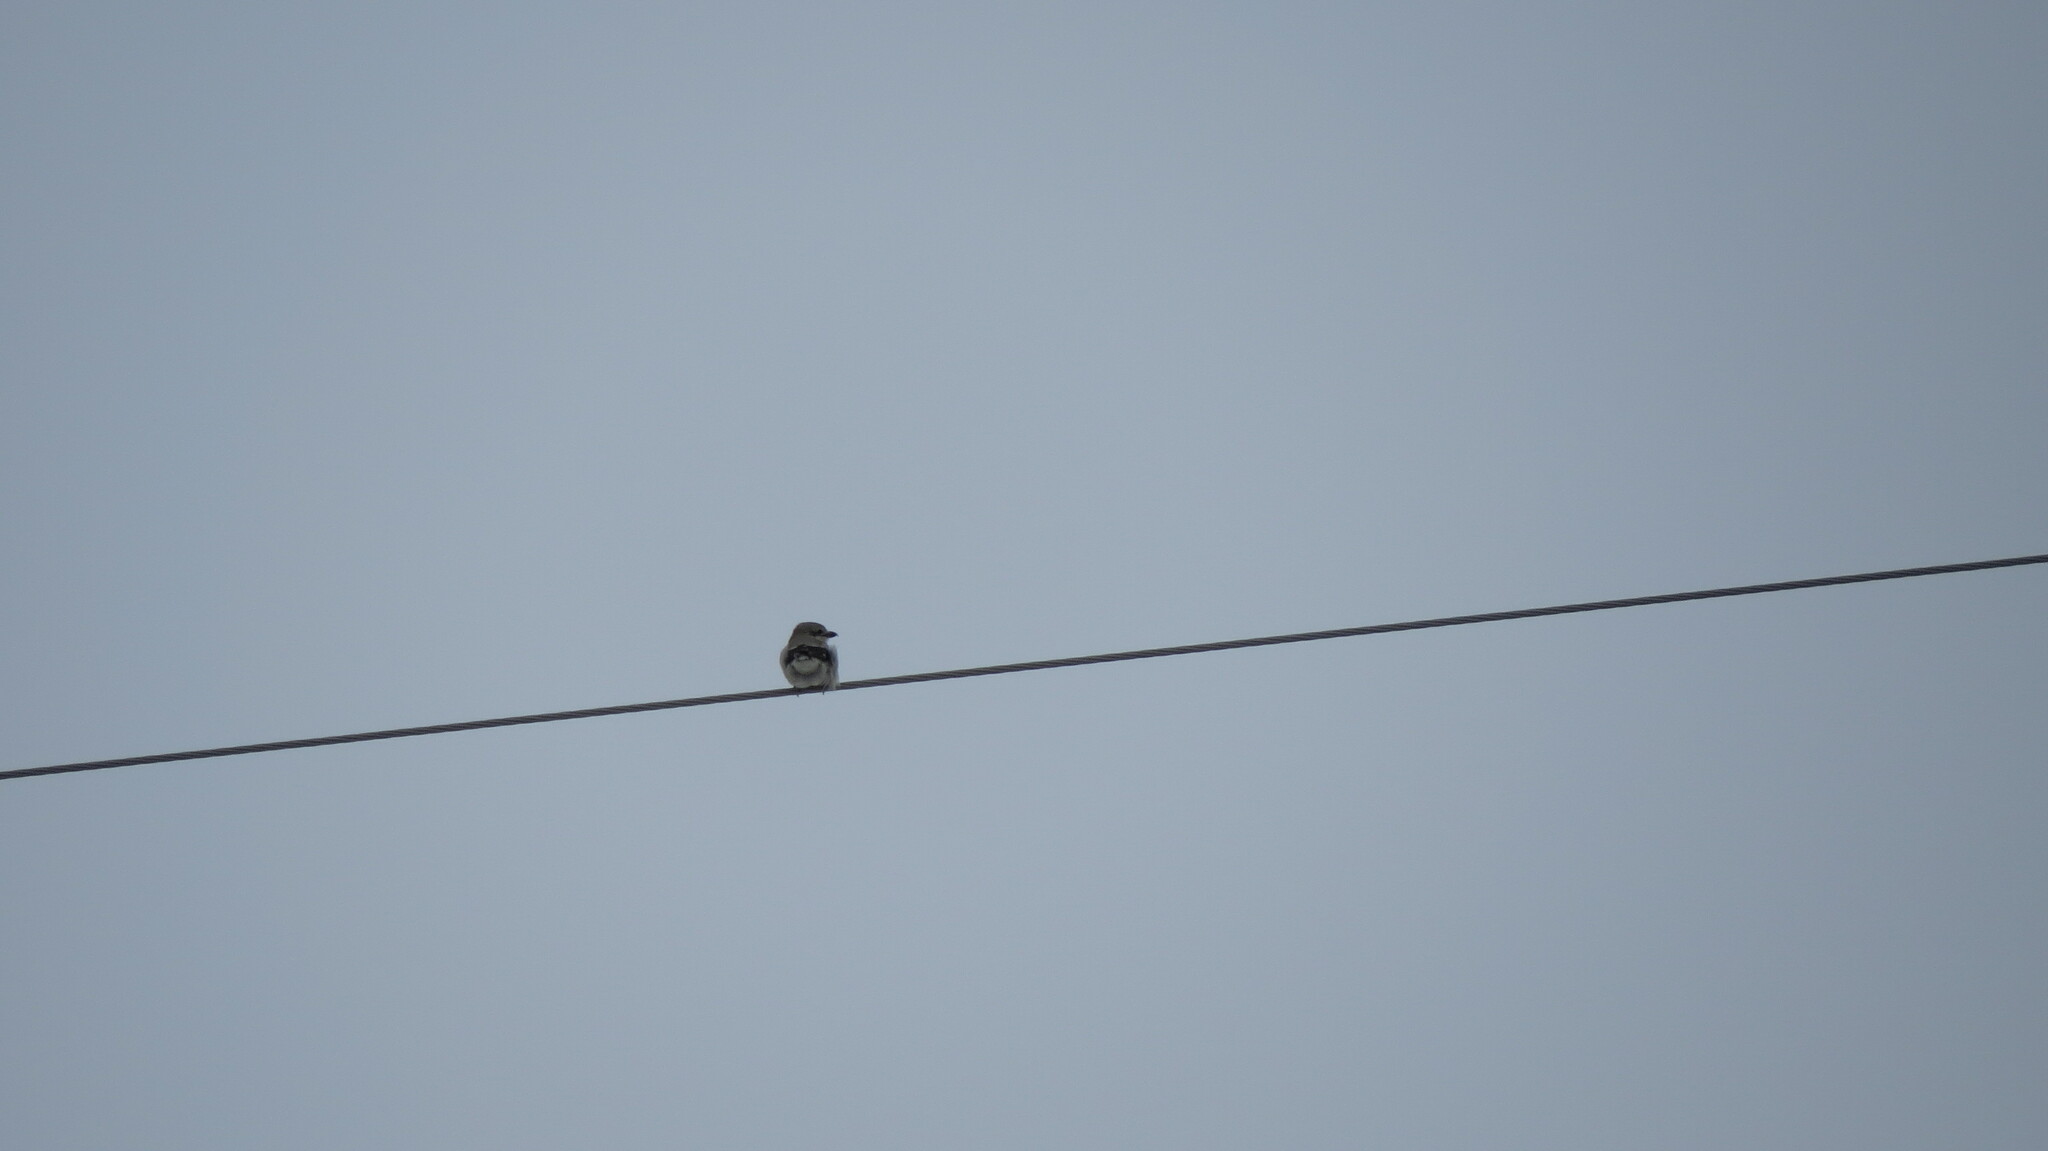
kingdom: Animalia
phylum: Chordata
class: Aves
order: Passeriformes
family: Laniidae
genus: Lanius
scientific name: Lanius borealis
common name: Northern shrike
